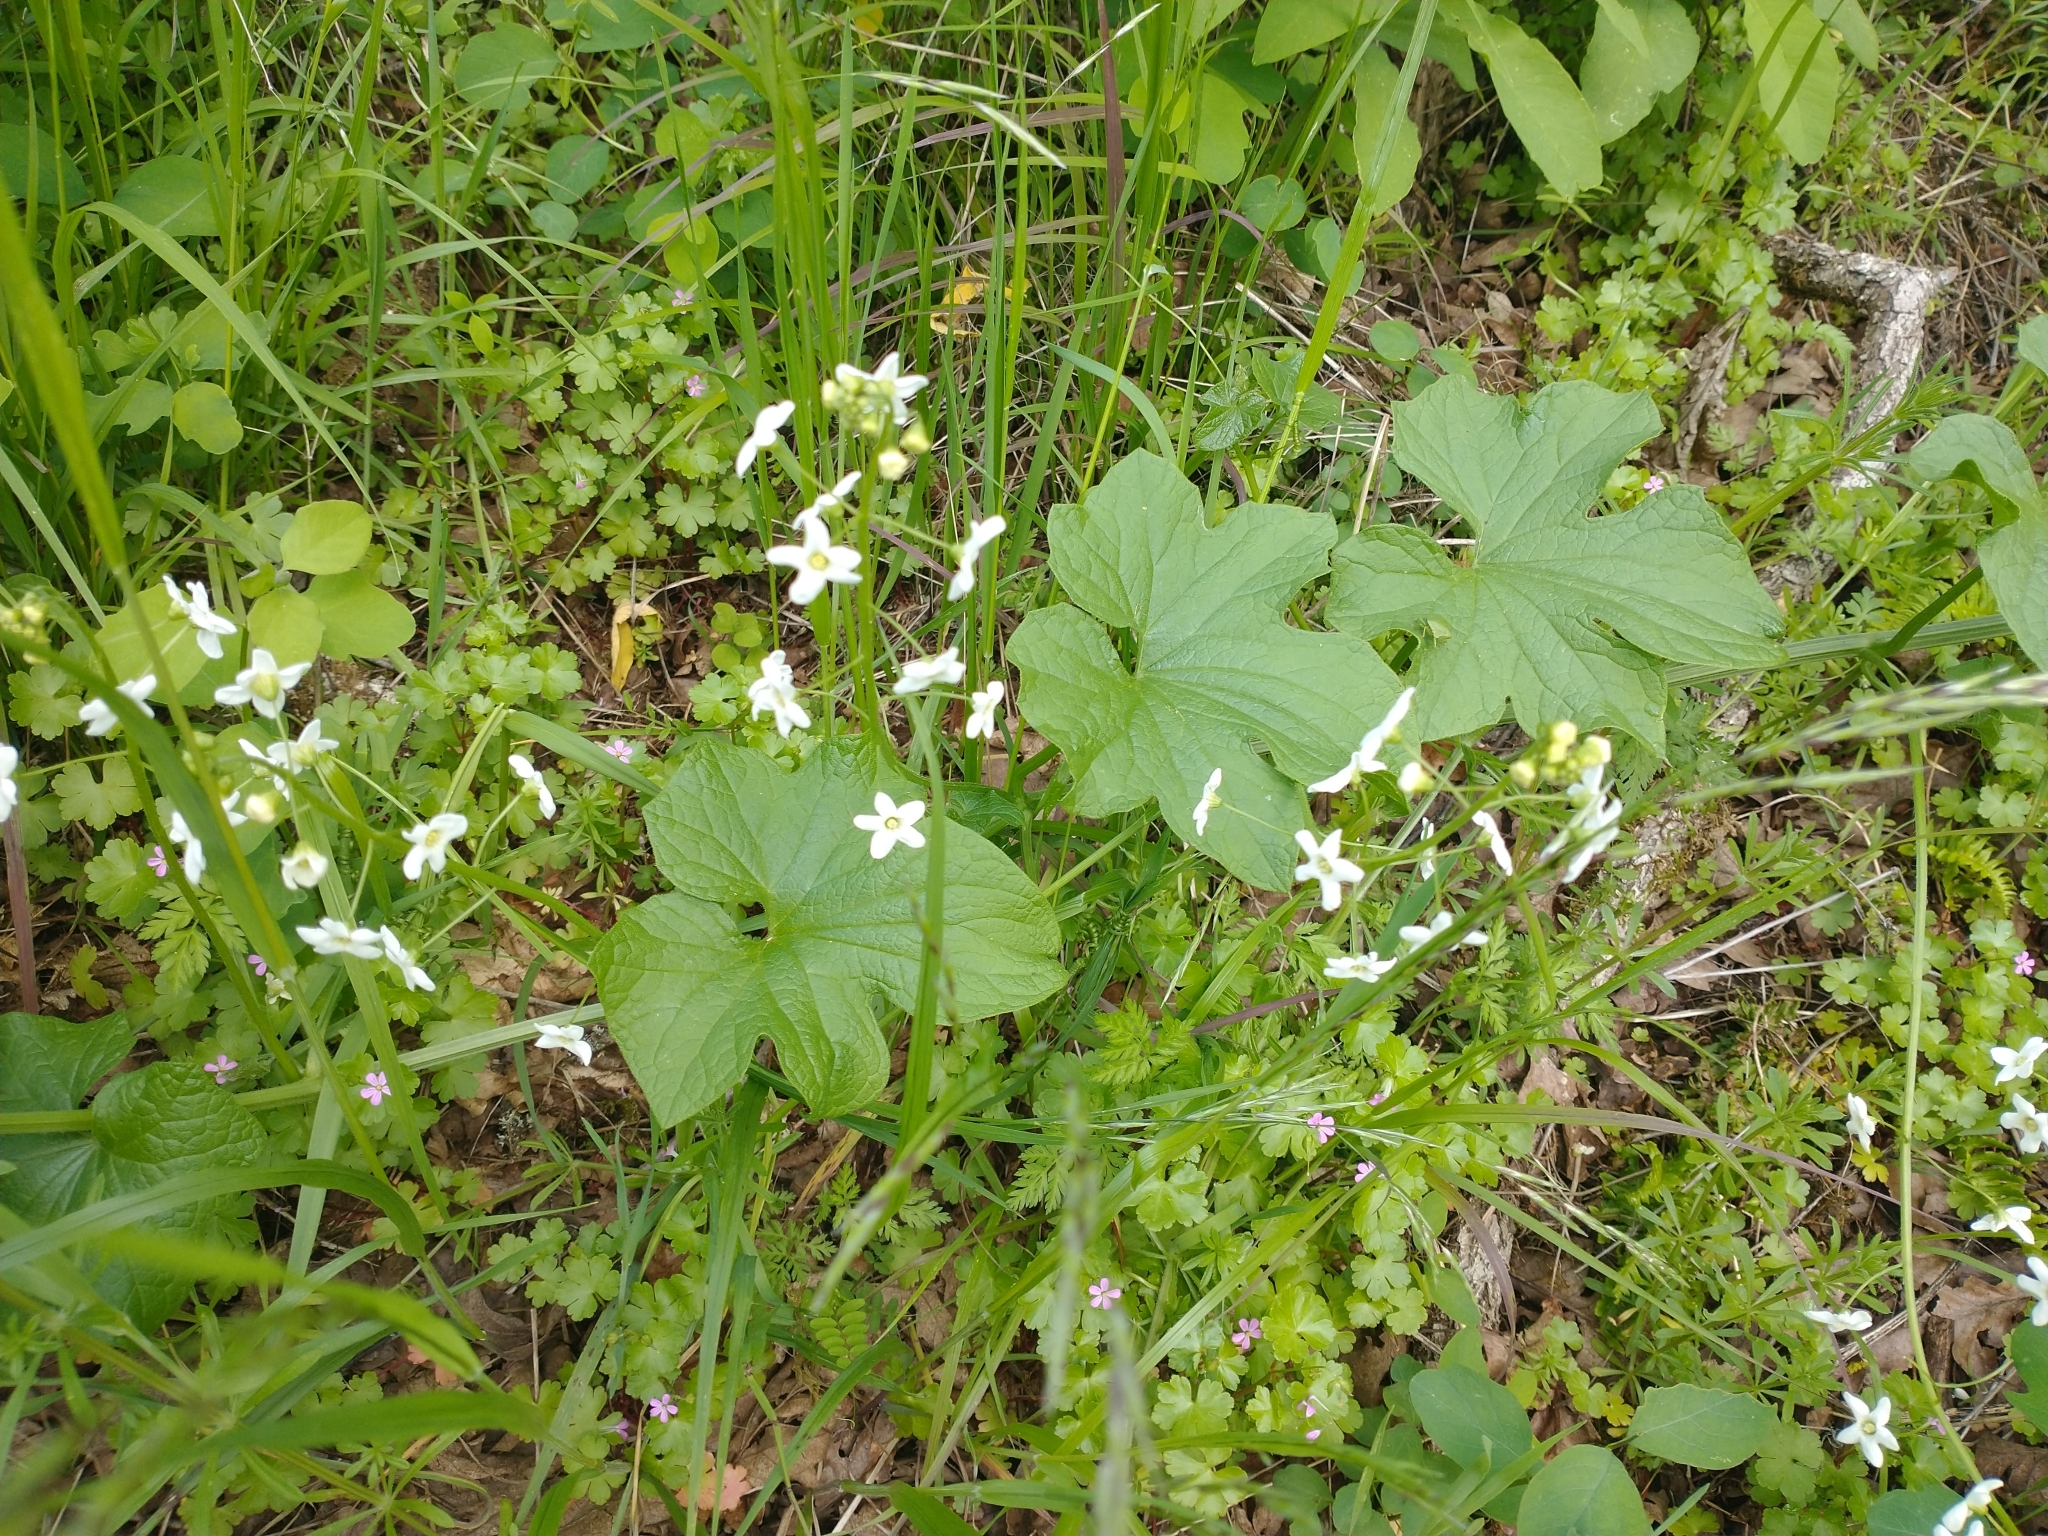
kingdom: Plantae
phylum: Tracheophyta
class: Magnoliopsida
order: Cucurbitales
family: Cucurbitaceae
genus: Marah
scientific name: Marah oregana
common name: Coastal manroot
